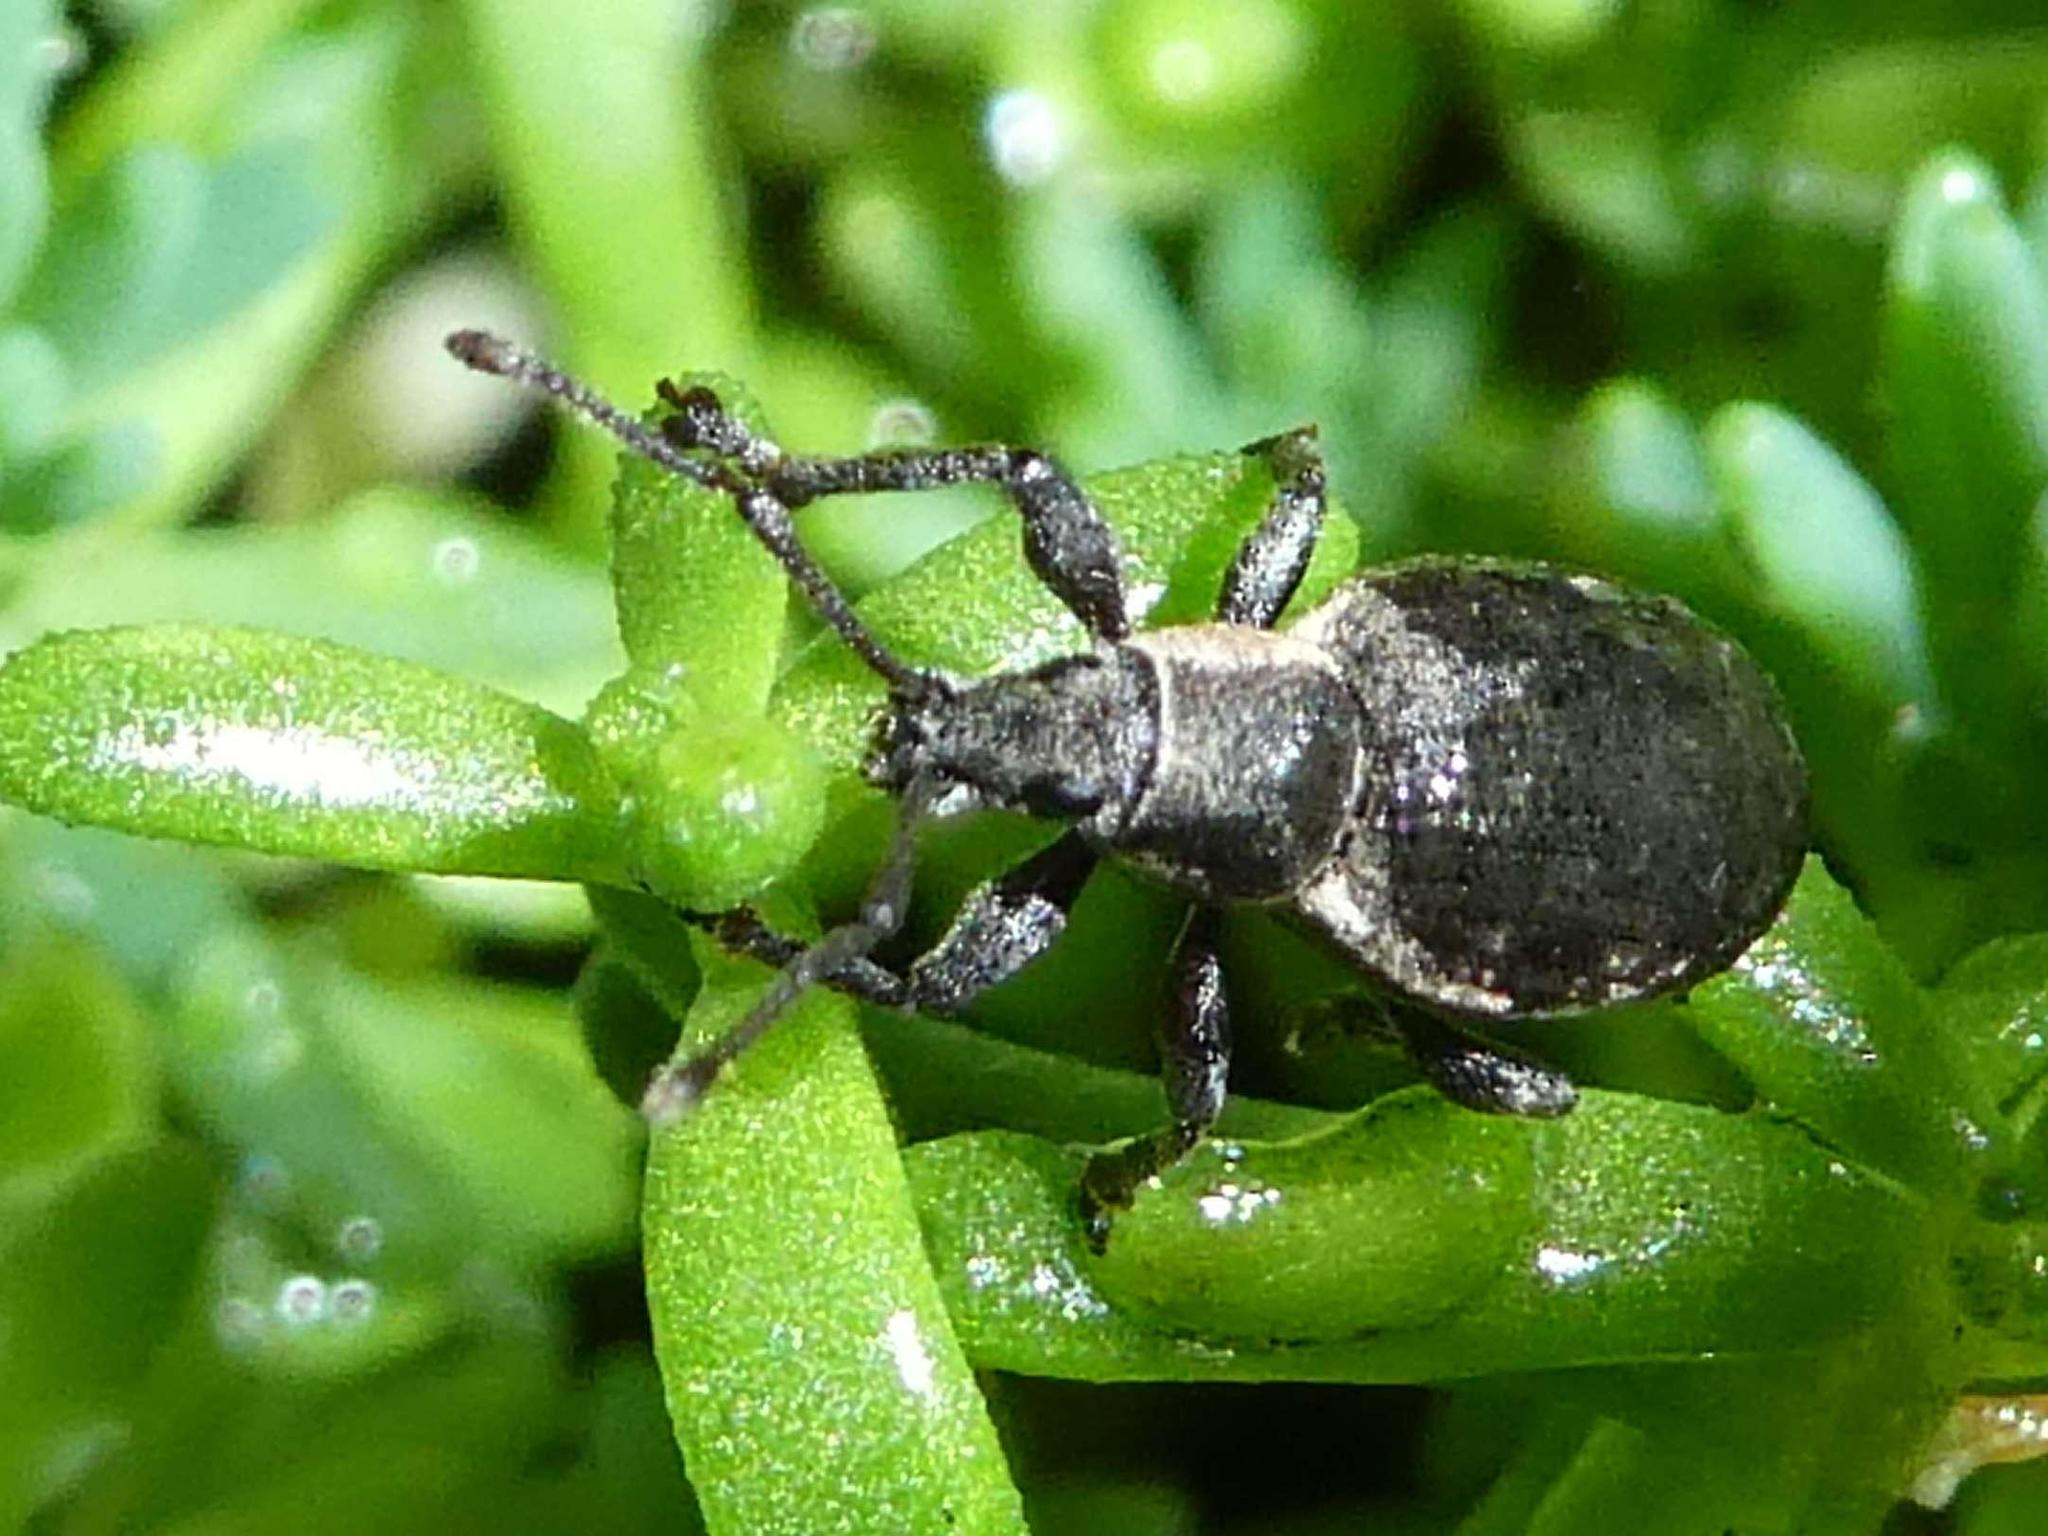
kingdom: Animalia
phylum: Arthropoda
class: Insecta
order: Coleoptera
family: Curculionidae
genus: Peritelus
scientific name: Peritelus sphaeroides
